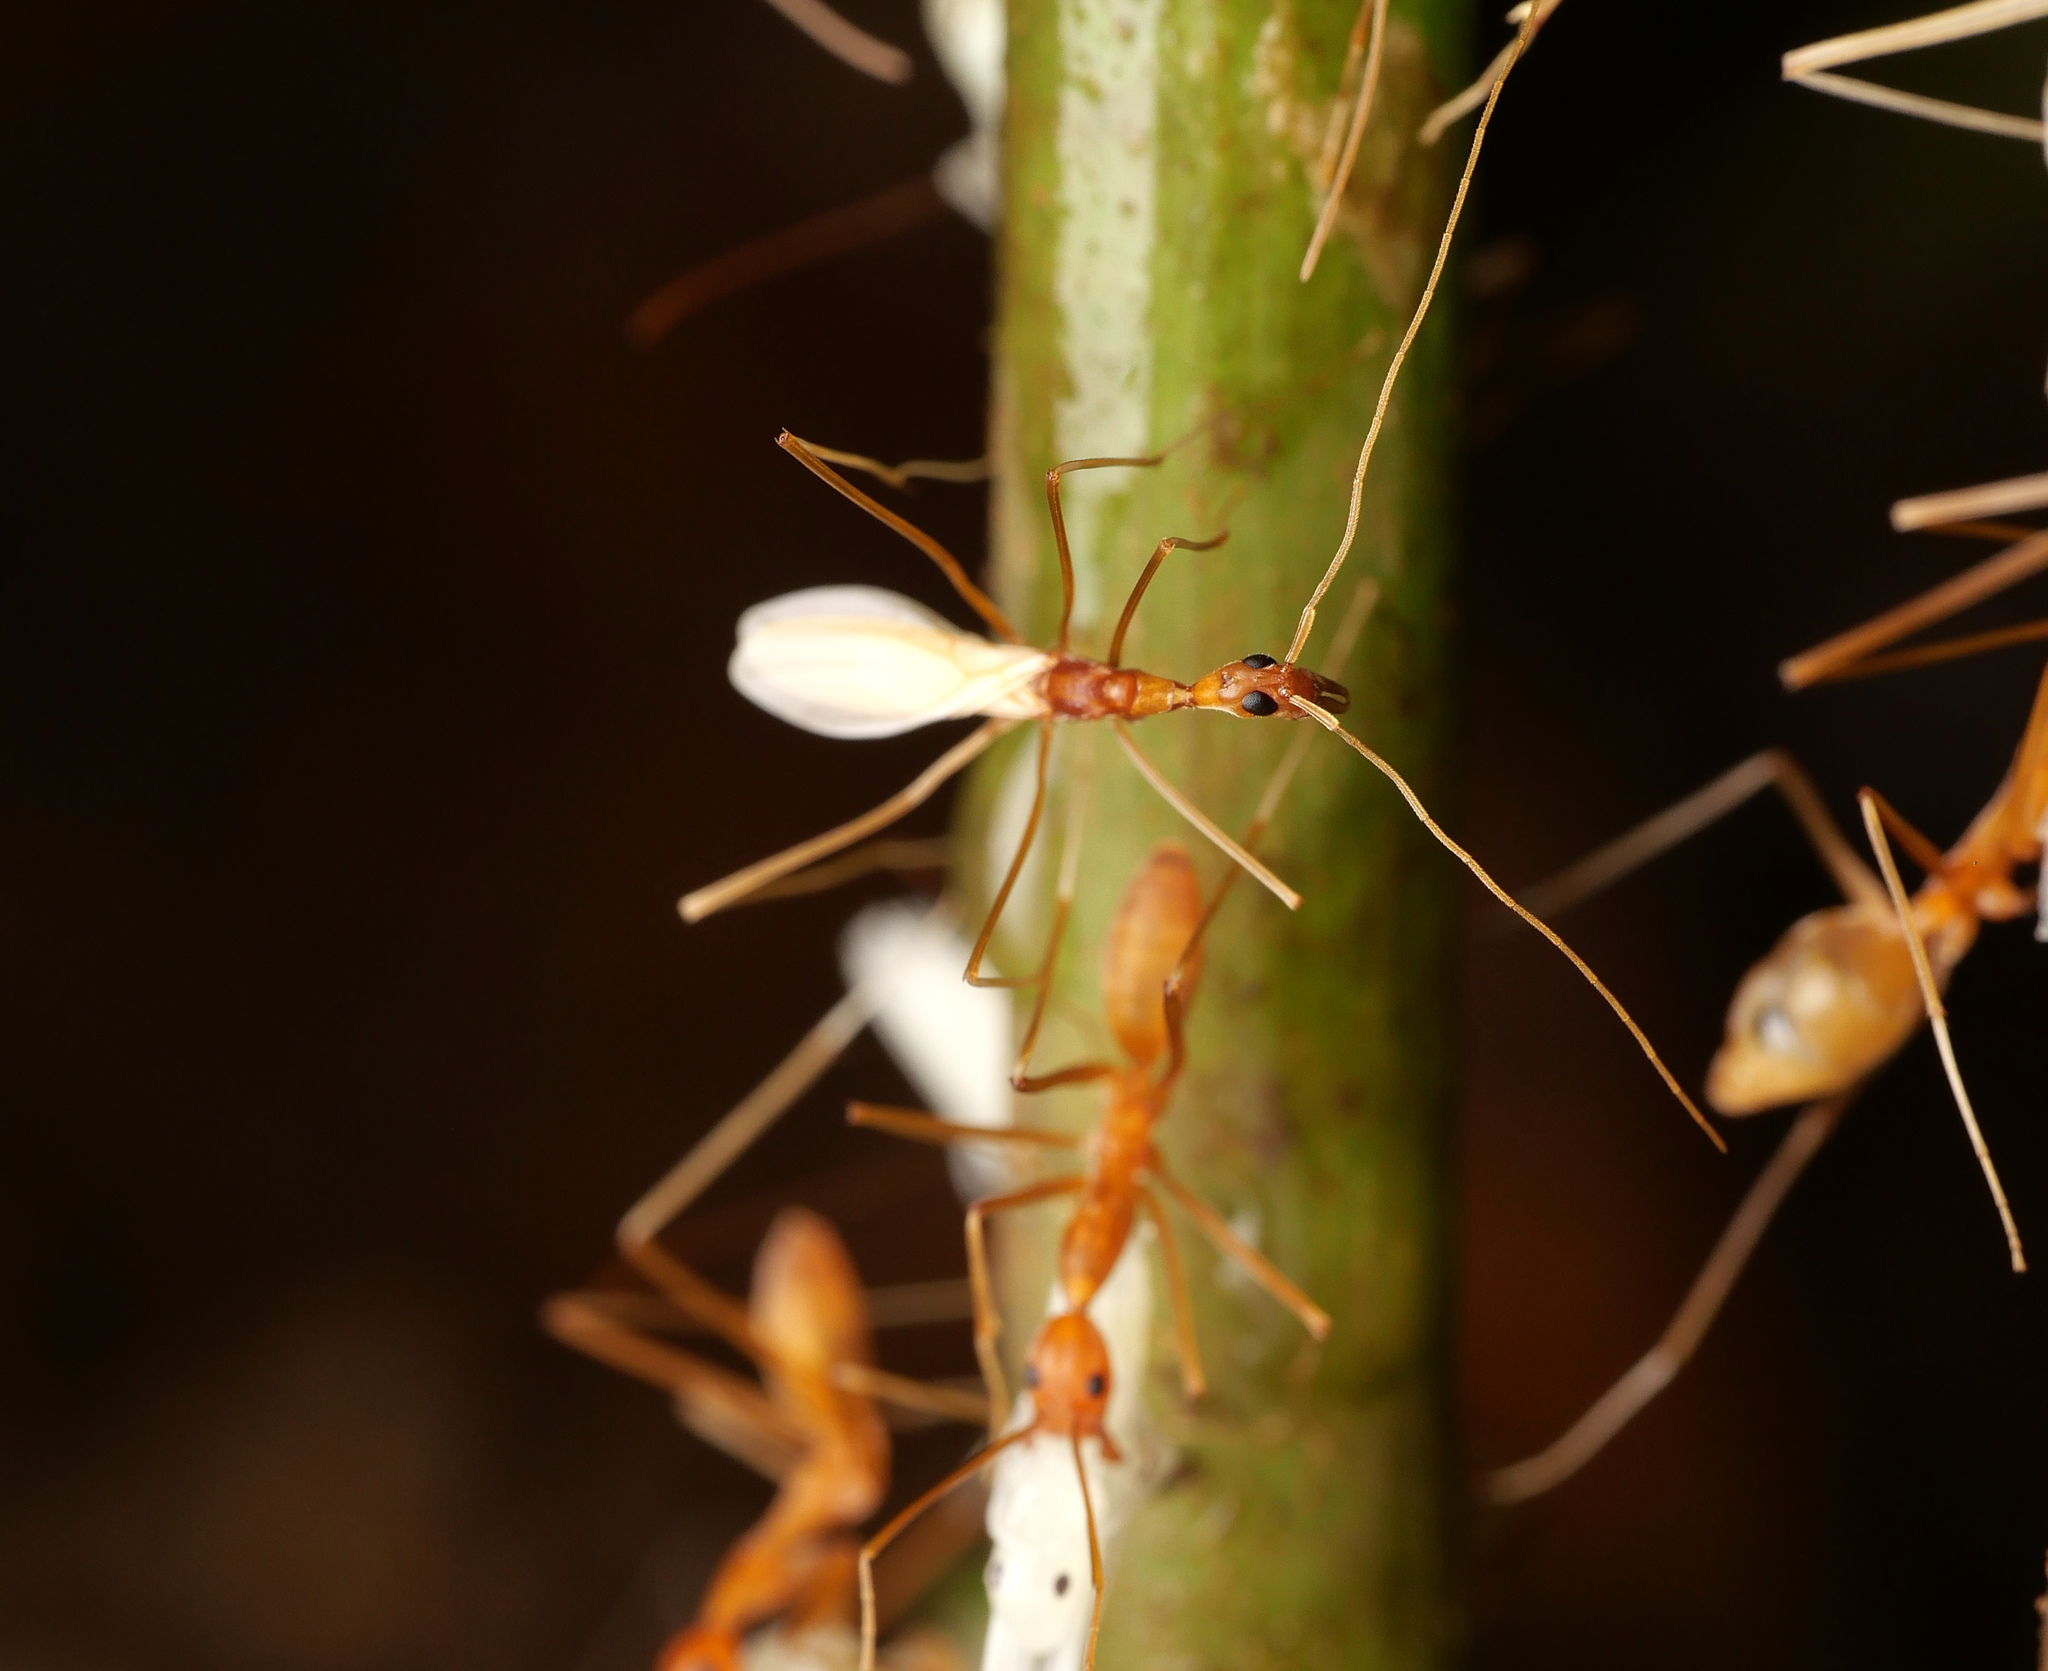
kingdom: Animalia
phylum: Arthropoda
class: Insecta
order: Hymenoptera
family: Formicidae
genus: Leptomyrmex
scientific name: Leptomyrmex puberulus
